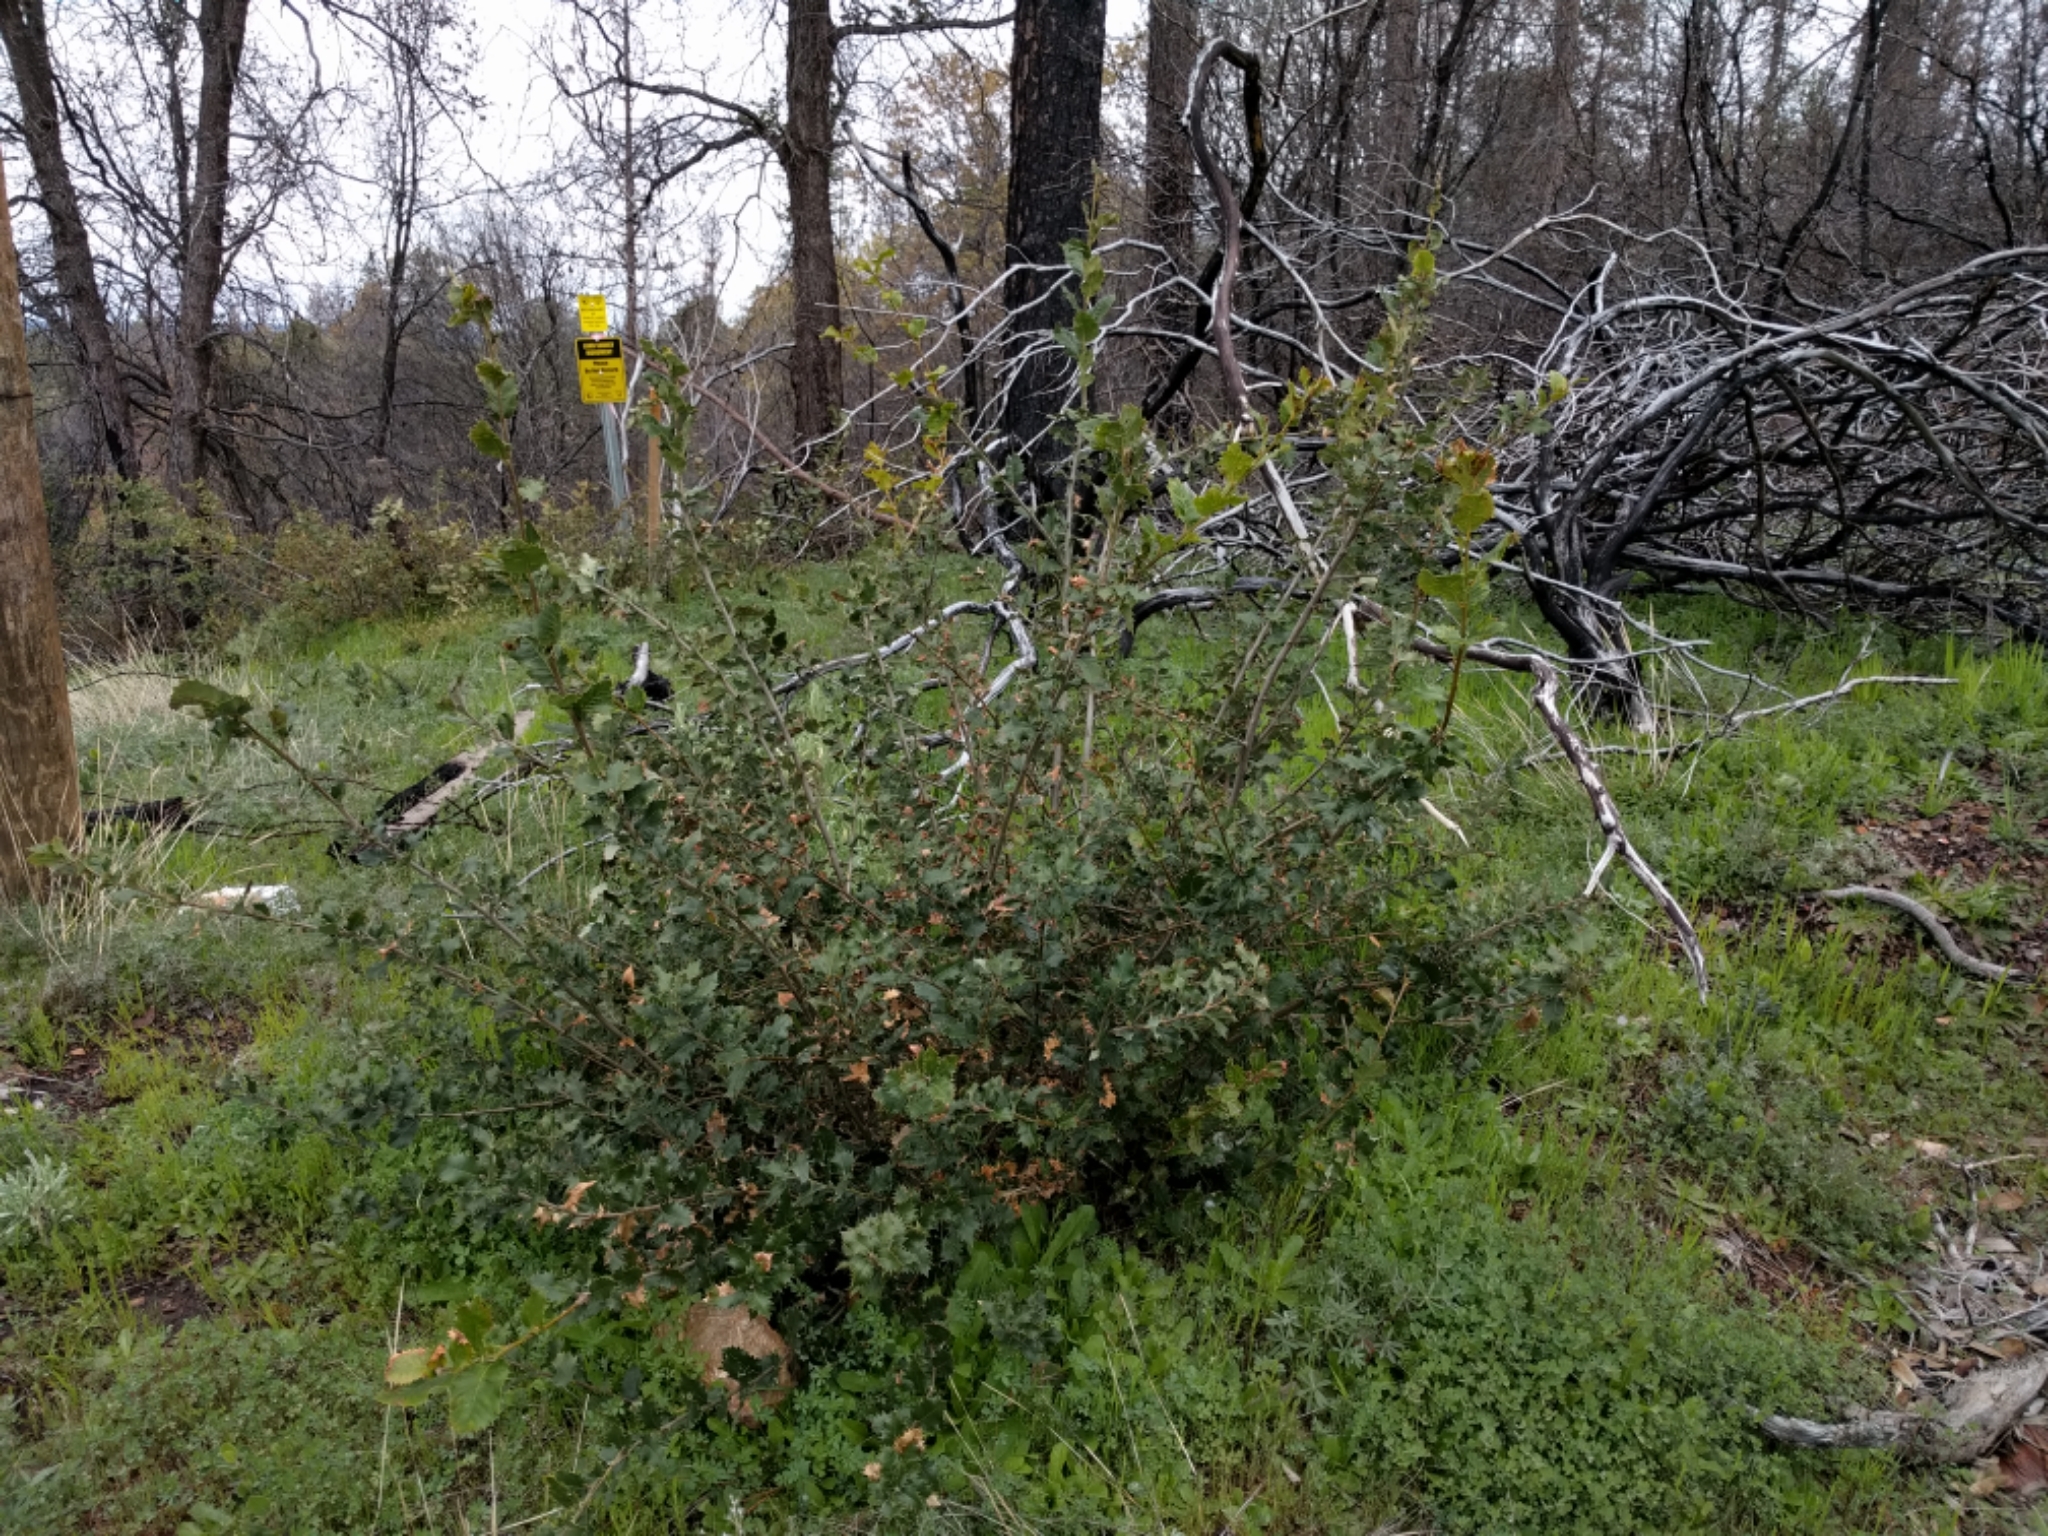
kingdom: Plantae
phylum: Tracheophyta
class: Magnoliopsida
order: Fagales
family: Fagaceae
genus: Quercus
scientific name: Quercus chrysolepis
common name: Canyon live oak
